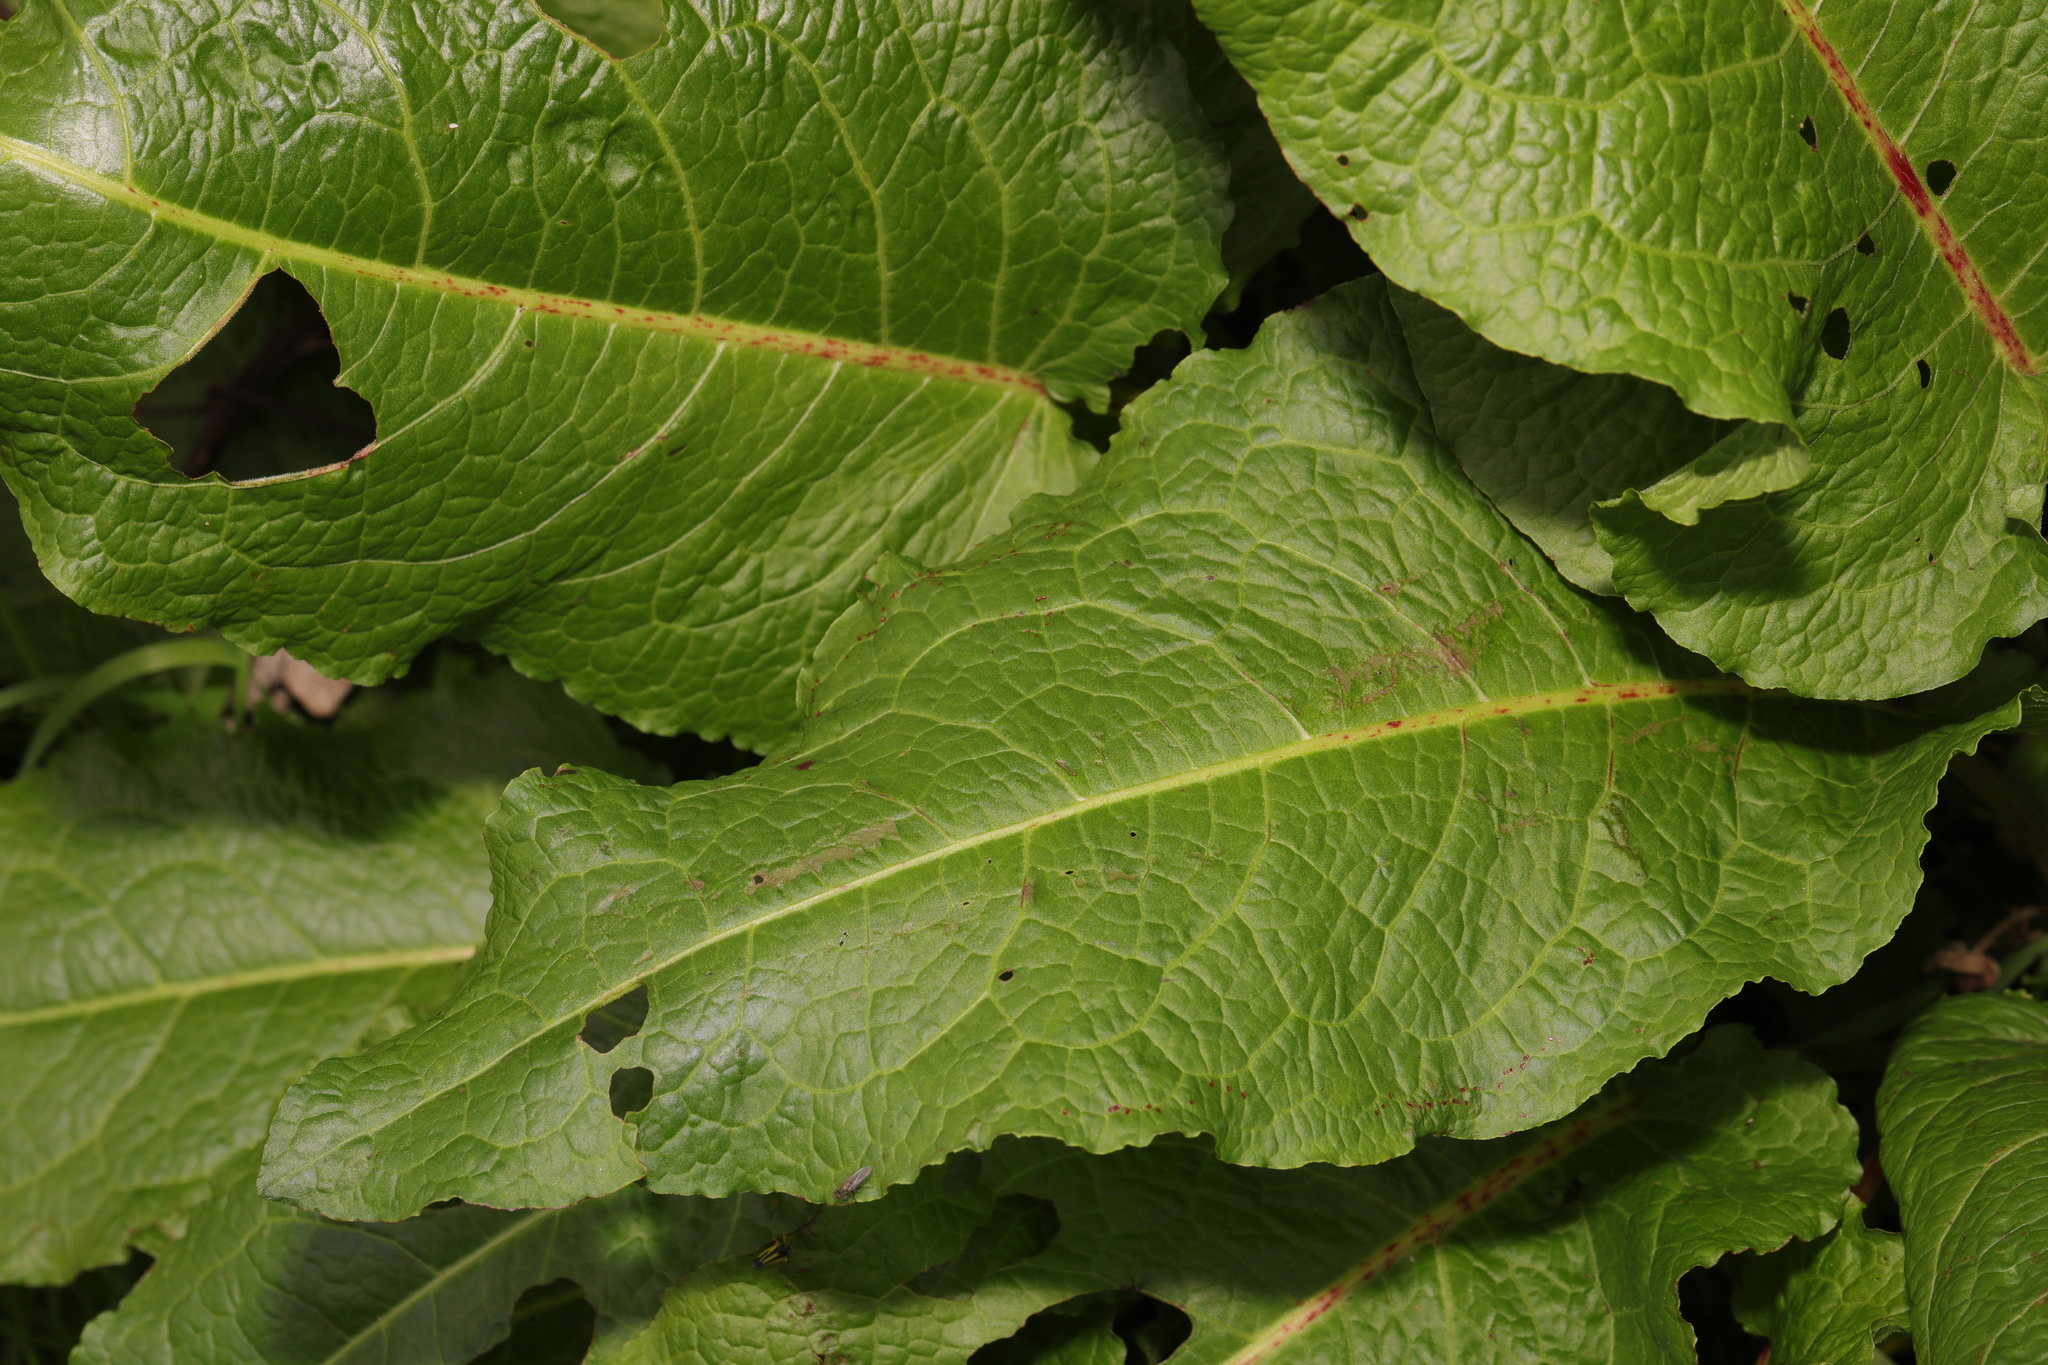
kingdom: Plantae
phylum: Tracheophyta
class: Magnoliopsida
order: Caryophyllales
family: Polygonaceae
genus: Rumex
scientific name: Rumex obtusifolius
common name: Bitter dock
